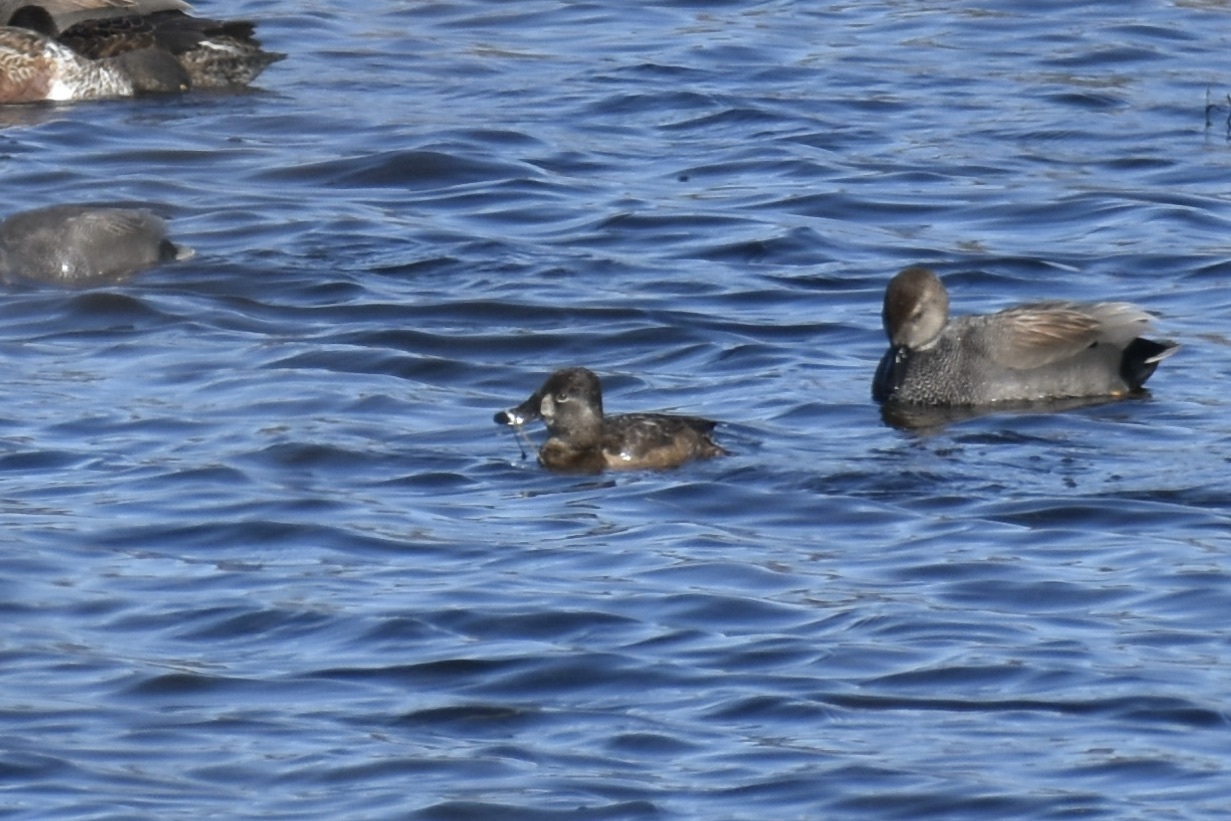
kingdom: Animalia
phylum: Chordata
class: Aves
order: Anseriformes
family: Anatidae
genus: Aythya
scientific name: Aythya collaris
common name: Ring-necked duck
